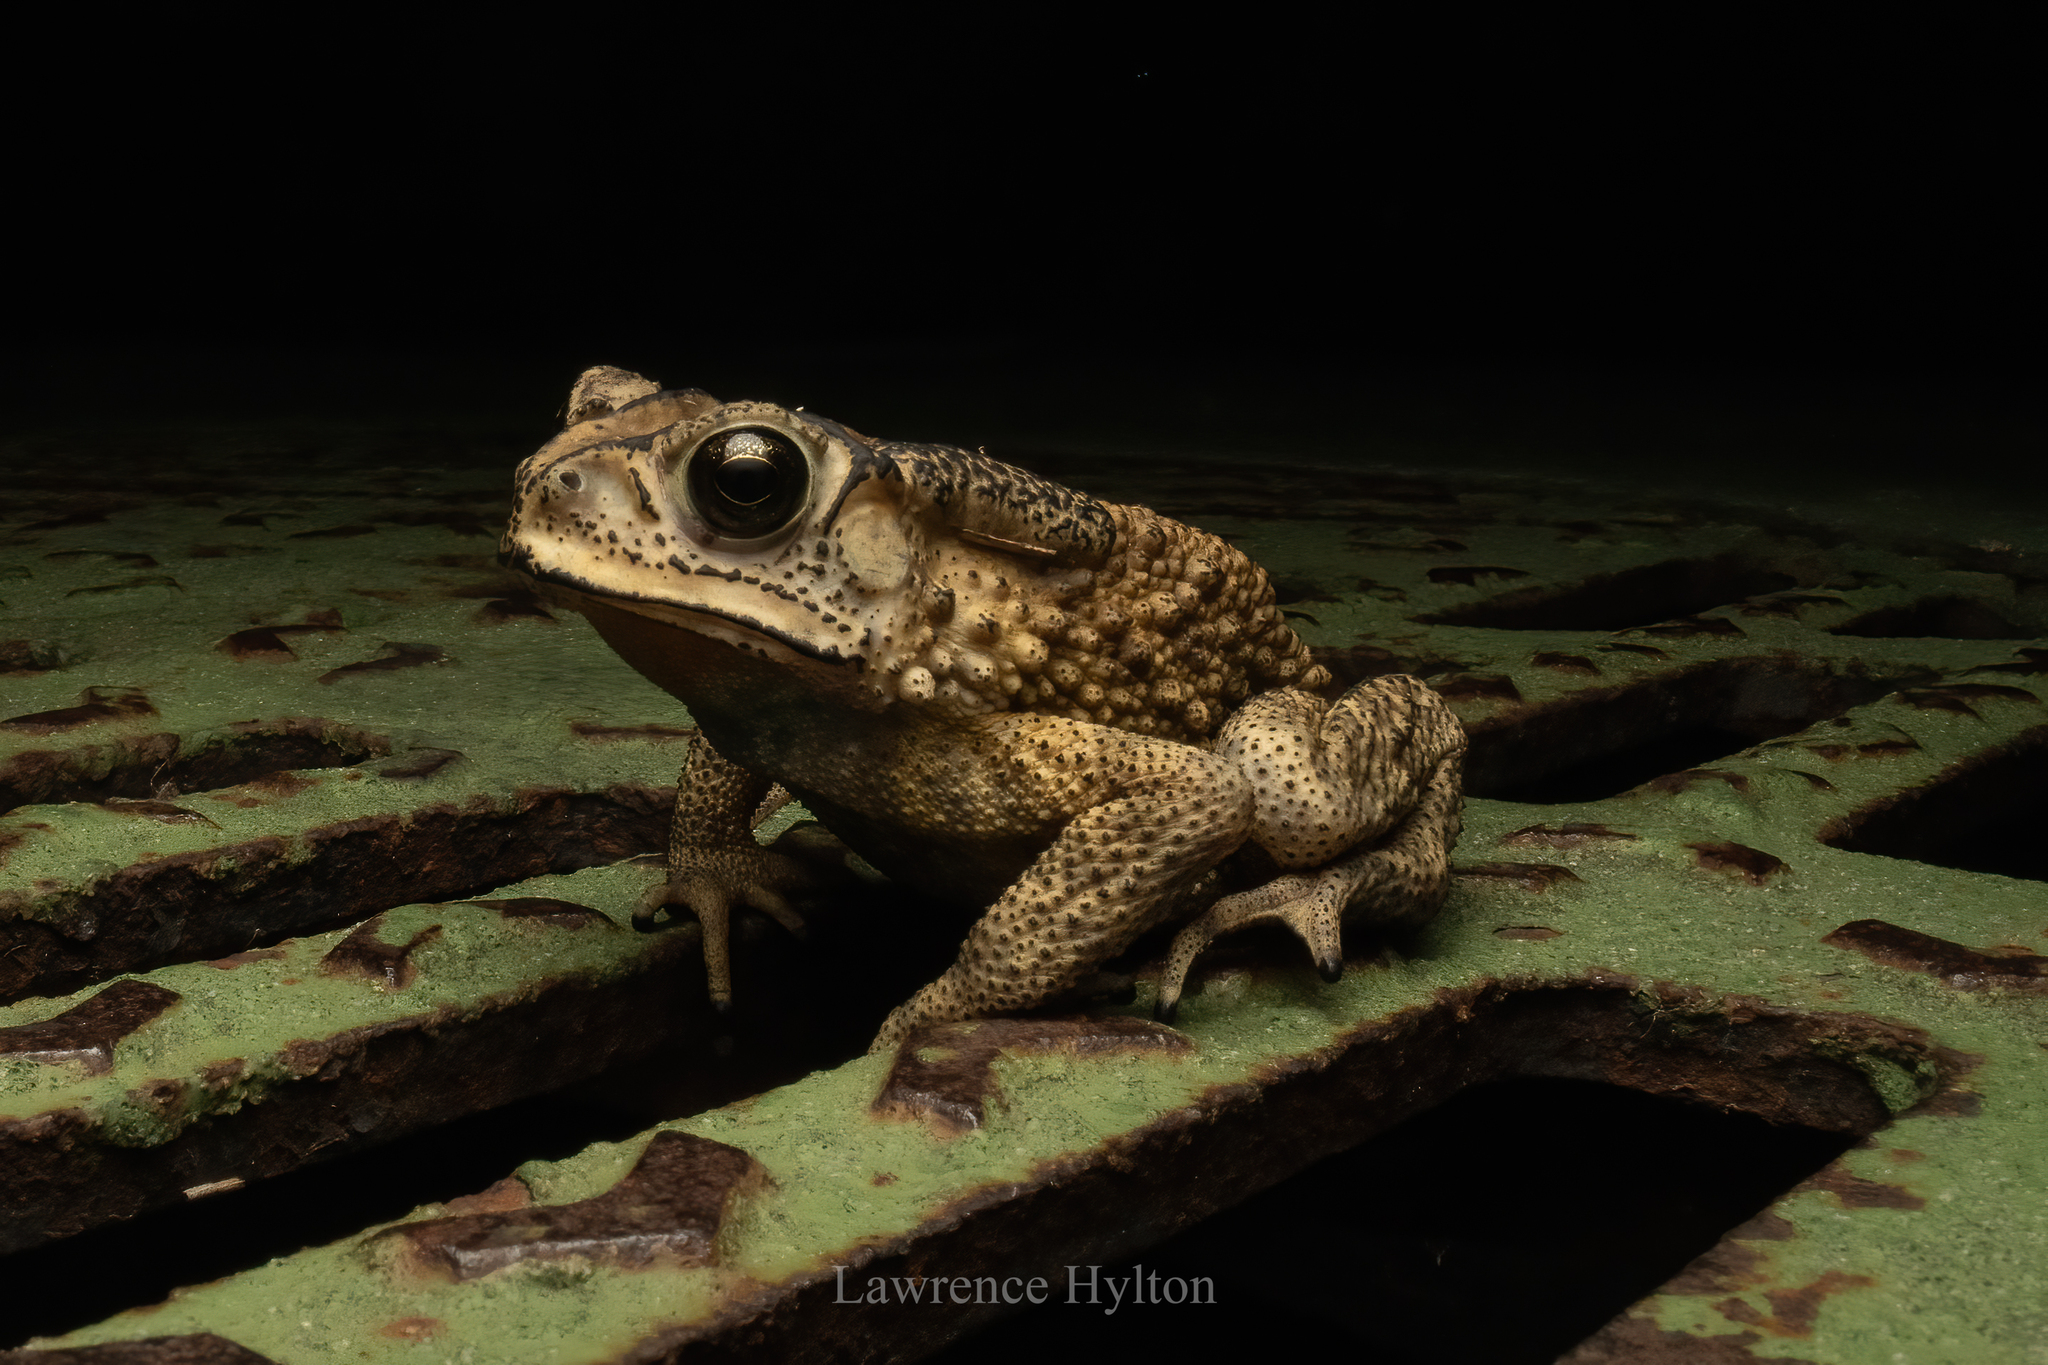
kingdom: Animalia
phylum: Chordata
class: Amphibia
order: Anura
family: Bufonidae
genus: Duttaphrynus
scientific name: Duttaphrynus melanostictus
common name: Common sunda toad
